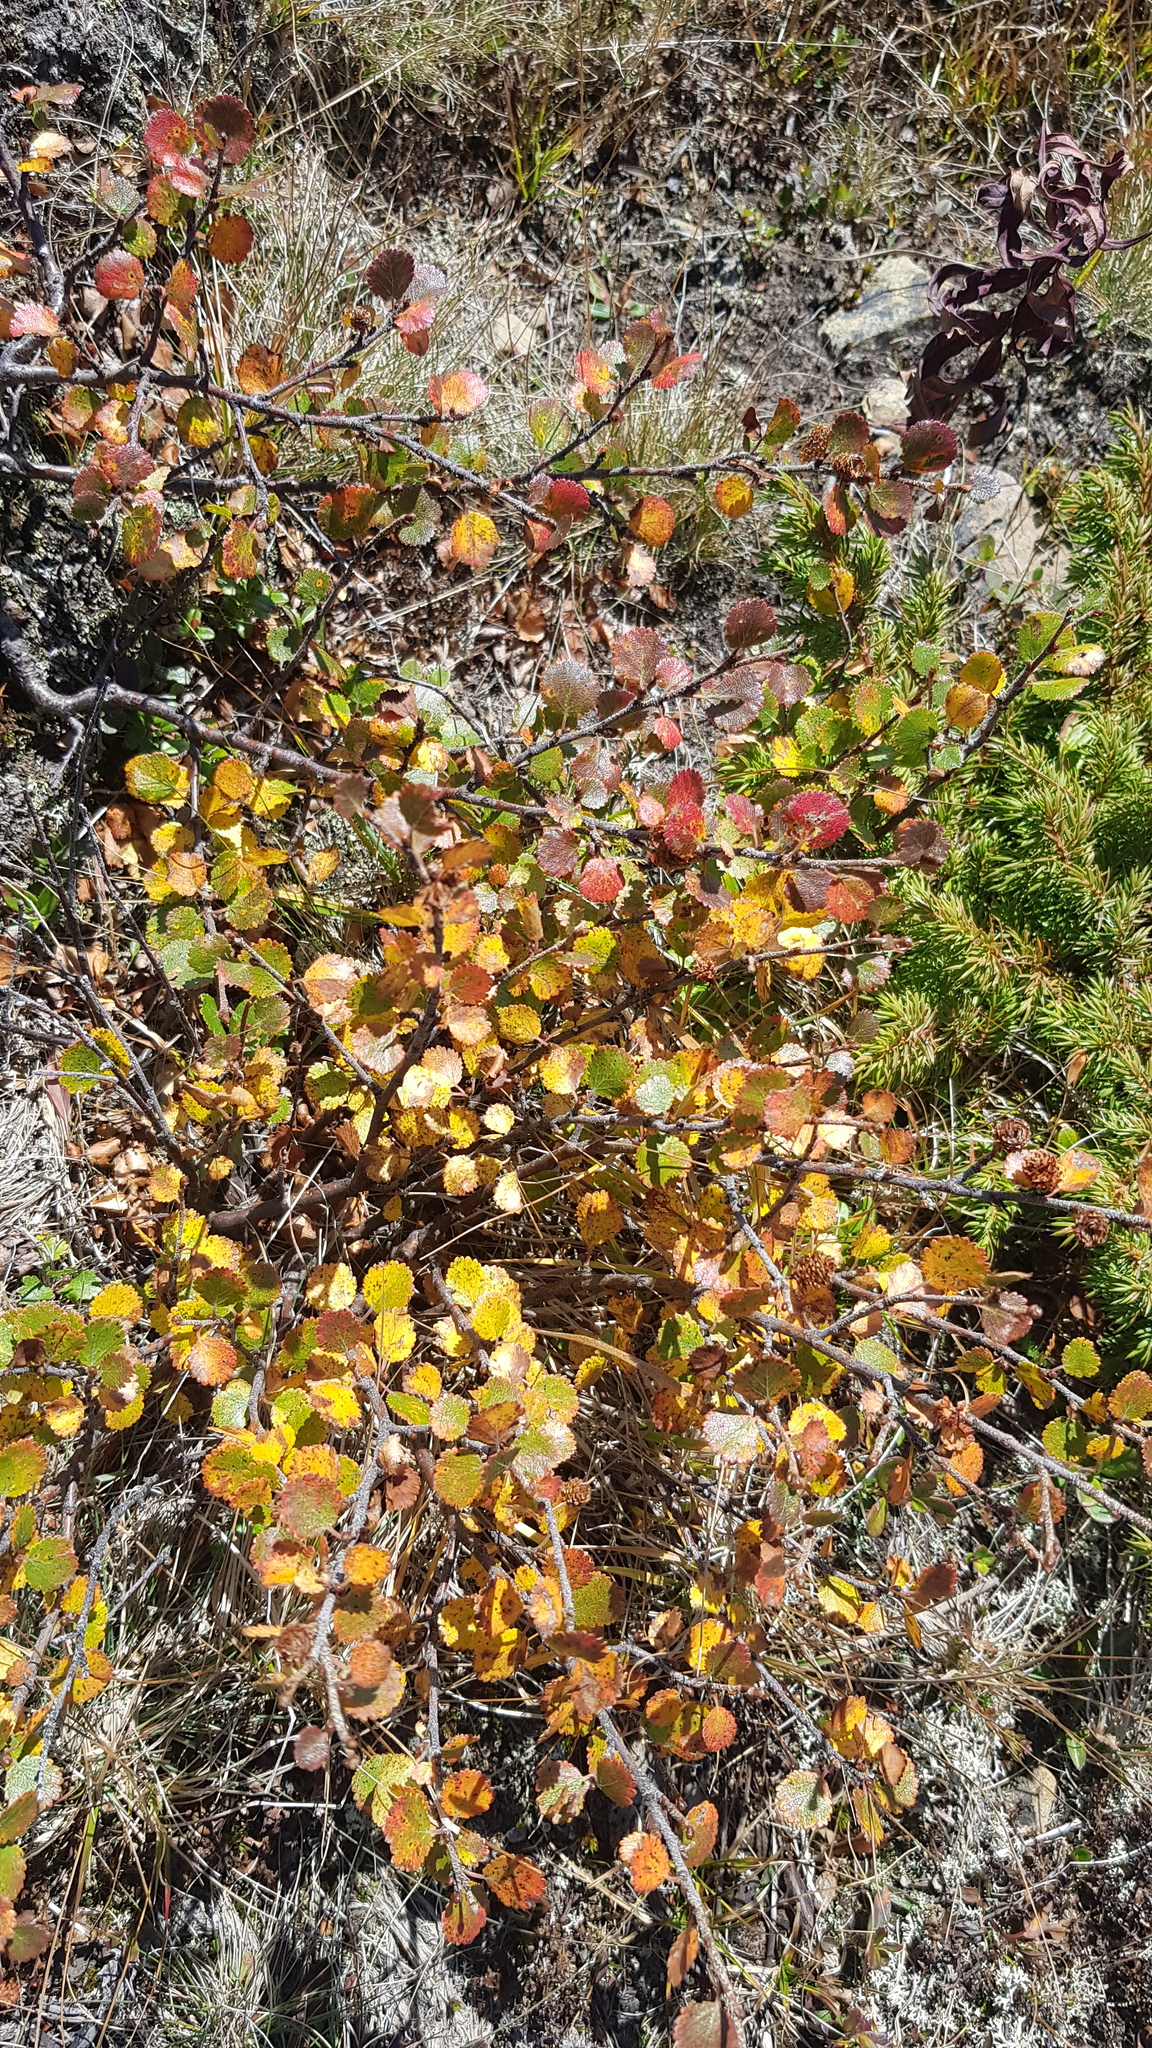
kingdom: Plantae
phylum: Tracheophyta
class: Magnoliopsida
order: Fagales
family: Betulaceae
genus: Betula
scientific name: Betula glandulosa
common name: Dwarf birch
